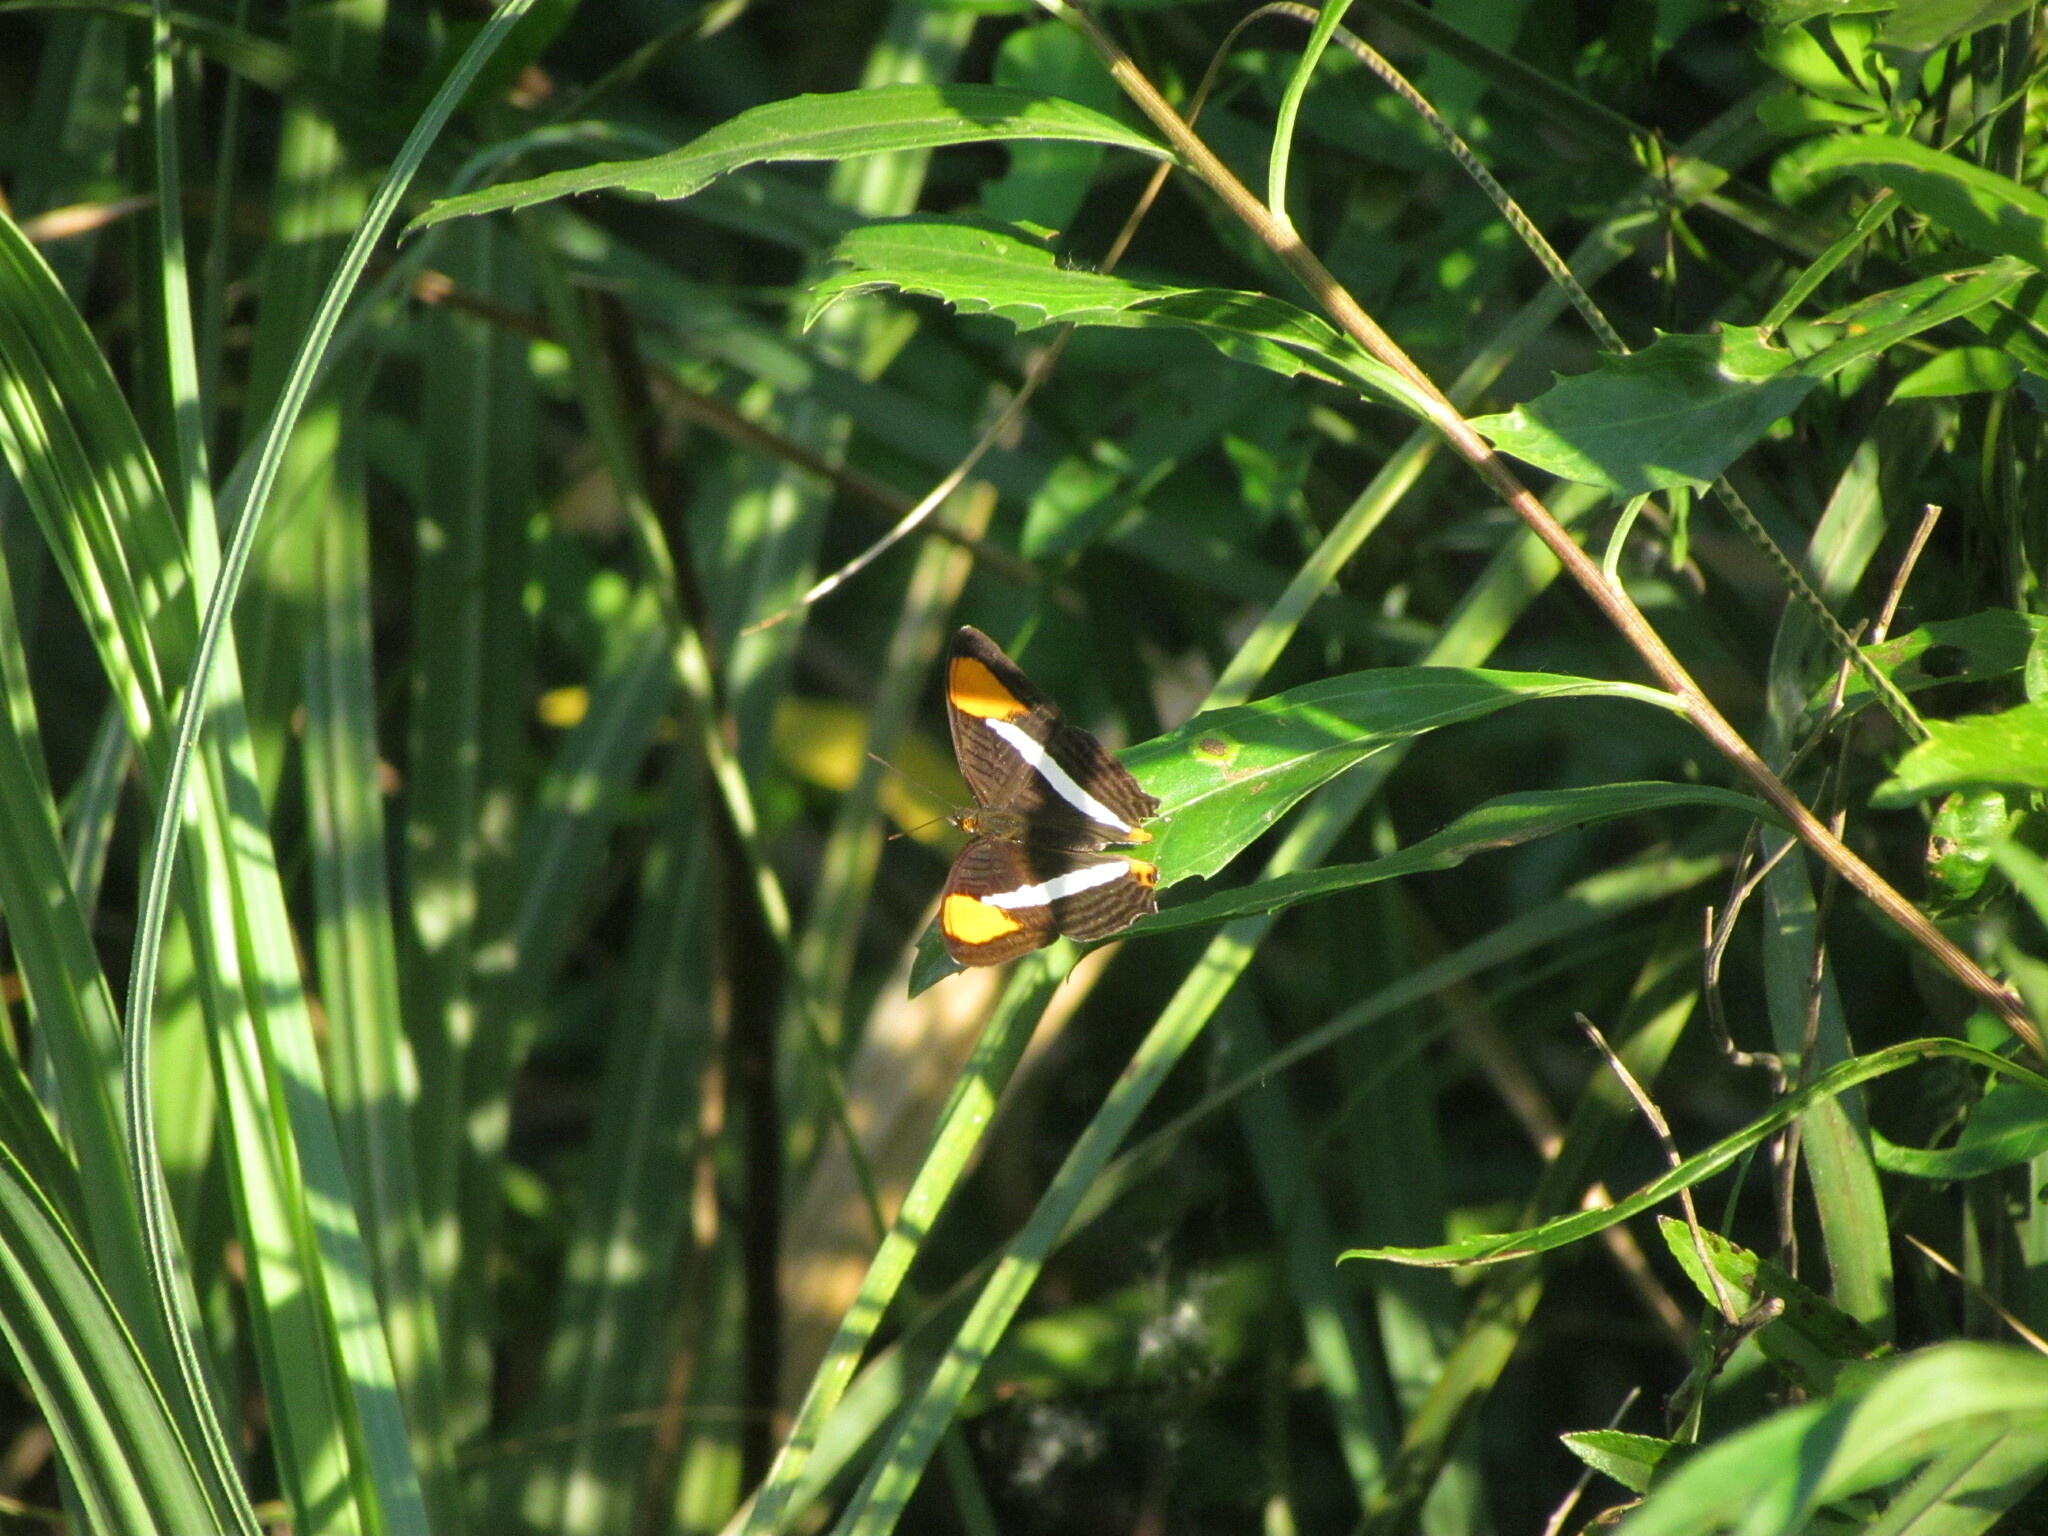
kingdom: Animalia
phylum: Arthropoda
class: Insecta
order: Lepidoptera
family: Nymphalidae
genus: Limenitis
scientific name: Limenitis syma
